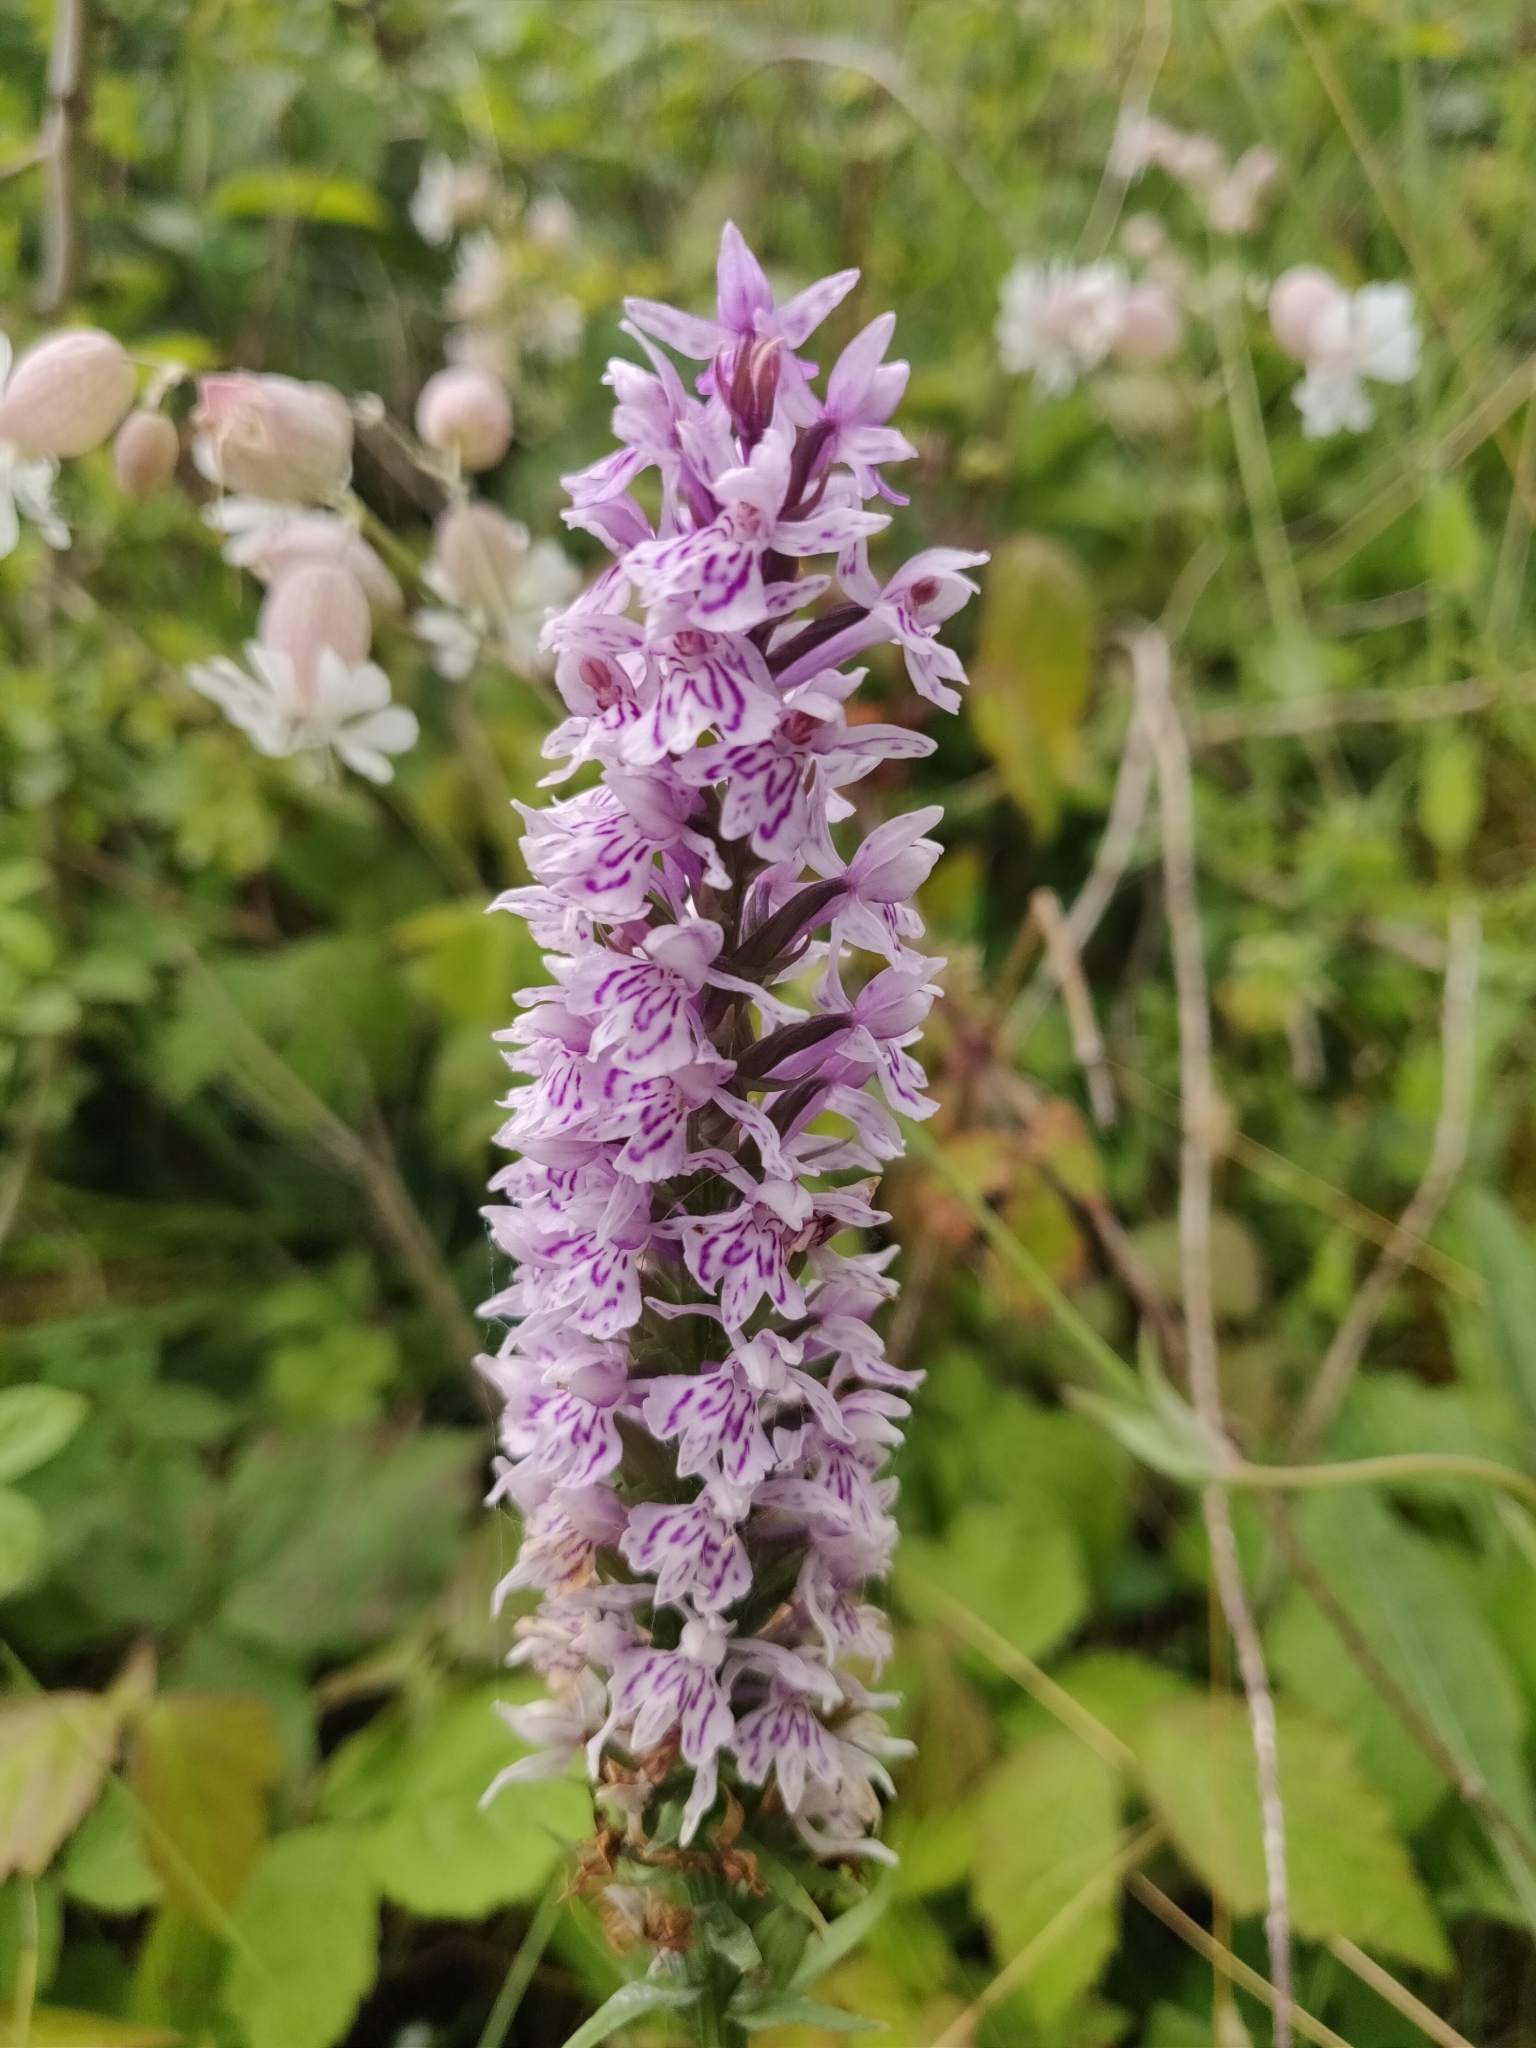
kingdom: Plantae
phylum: Tracheophyta
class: Liliopsida
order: Asparagales
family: Orchidaceae
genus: Dactylorhiza
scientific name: Dactylorhiza maculata
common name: Heath spotted-orchid
